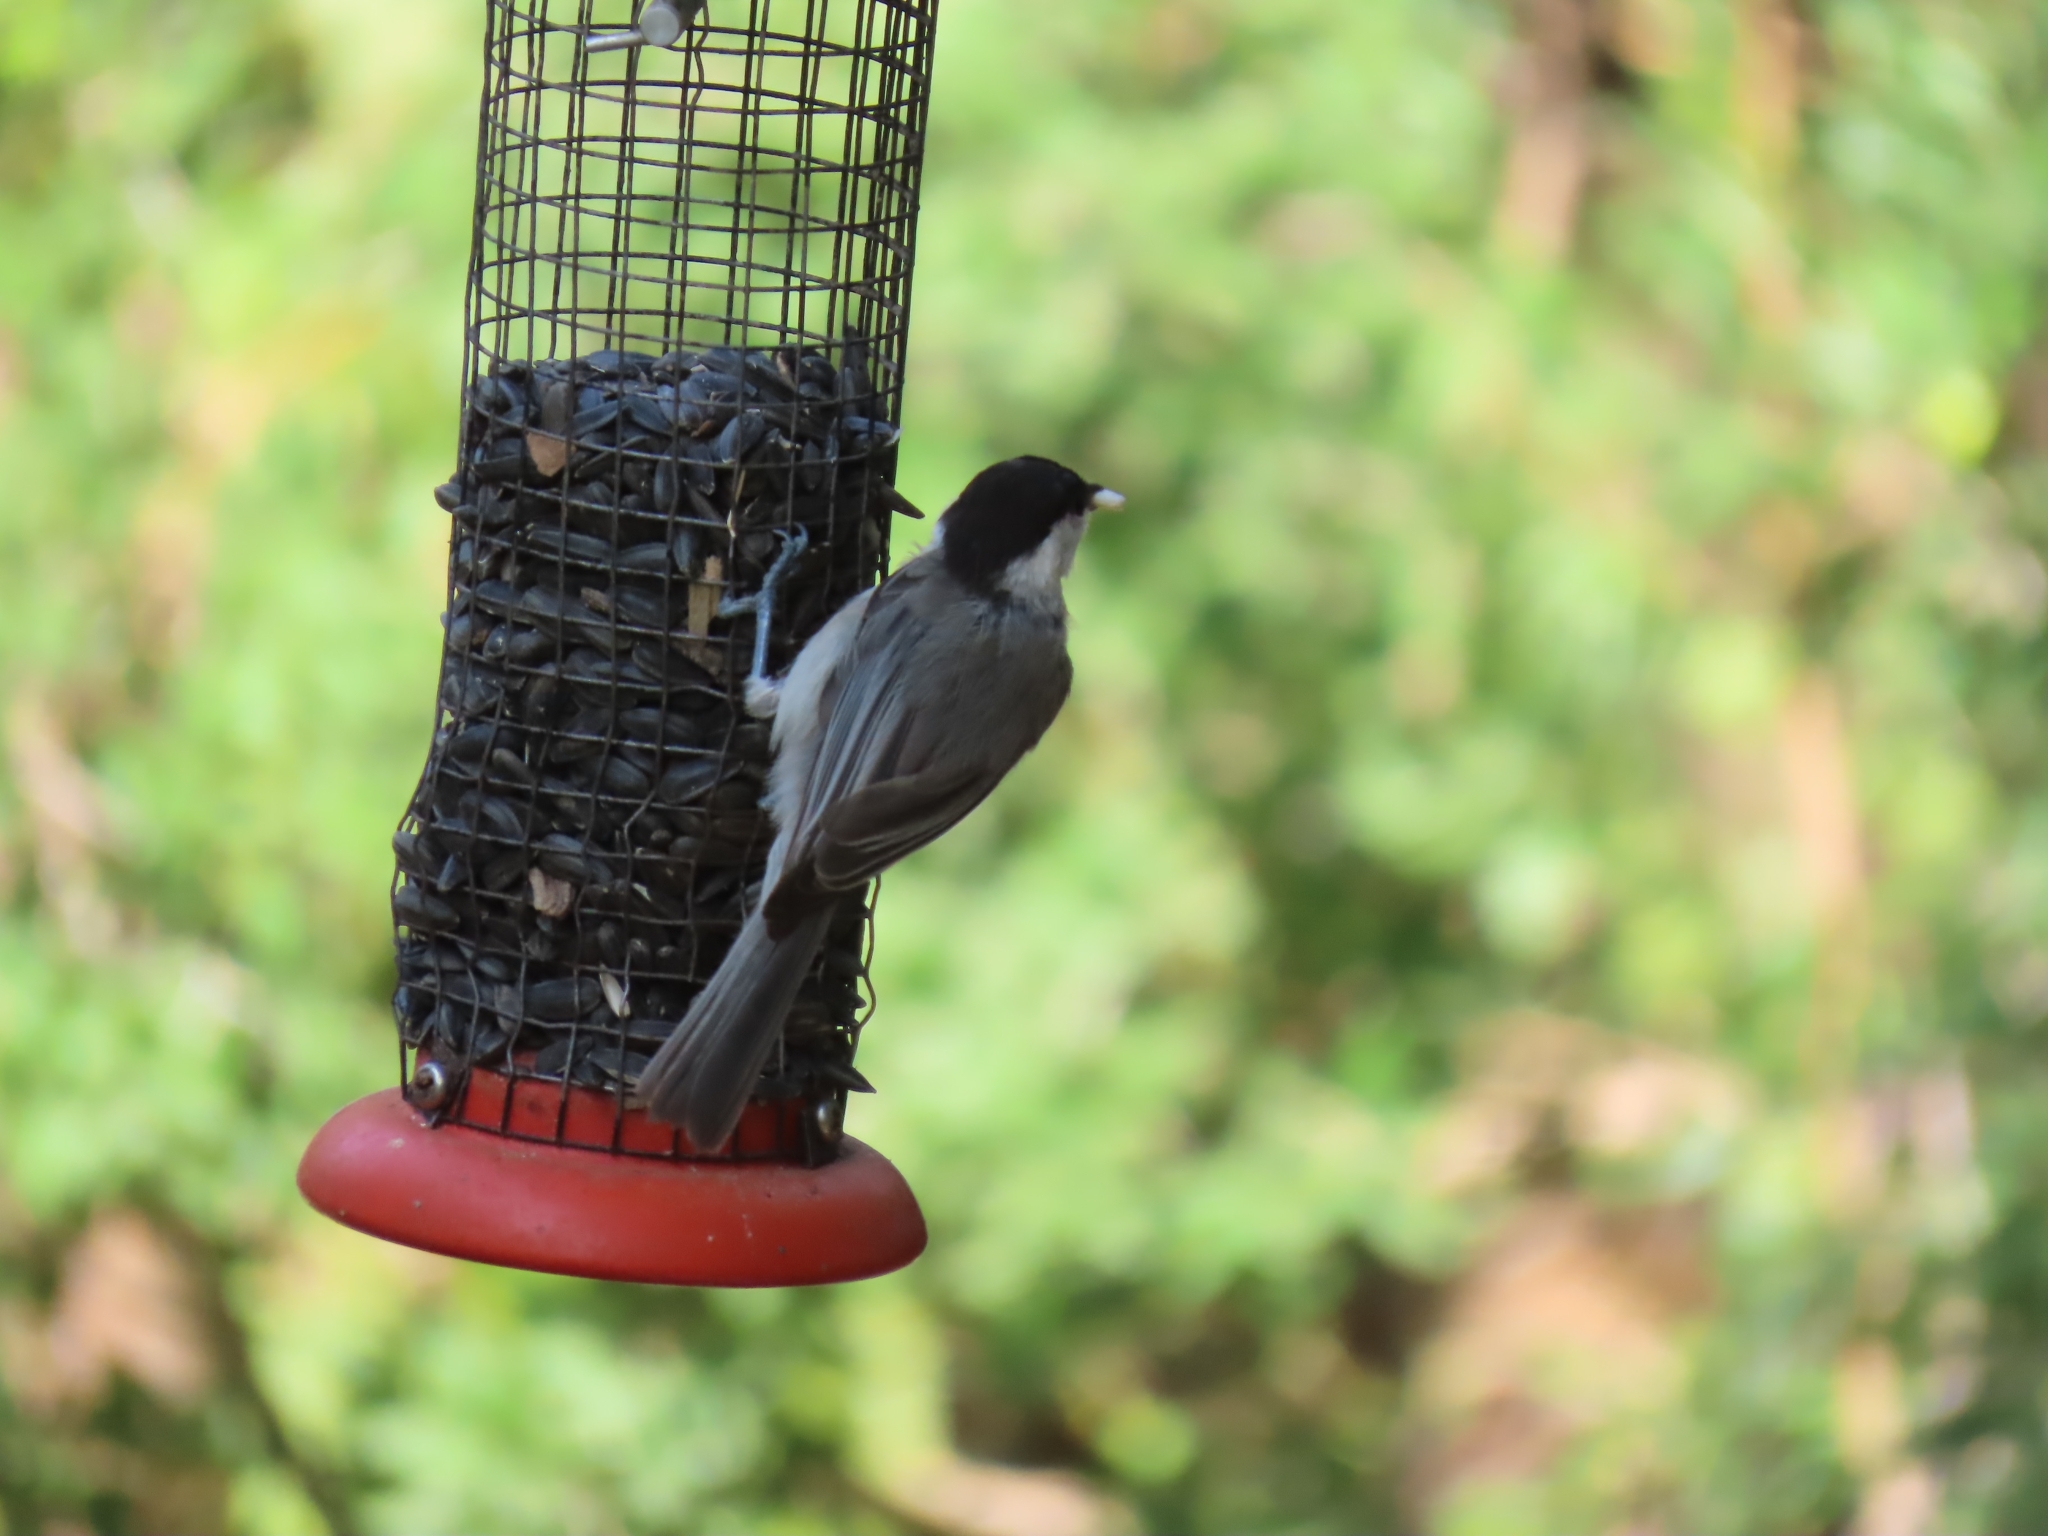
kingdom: Animalia
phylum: Chordata
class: Aves
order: Passeriformes
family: Paridae
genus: Poecile
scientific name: Poecile carolinensis
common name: Carolina chickadee
